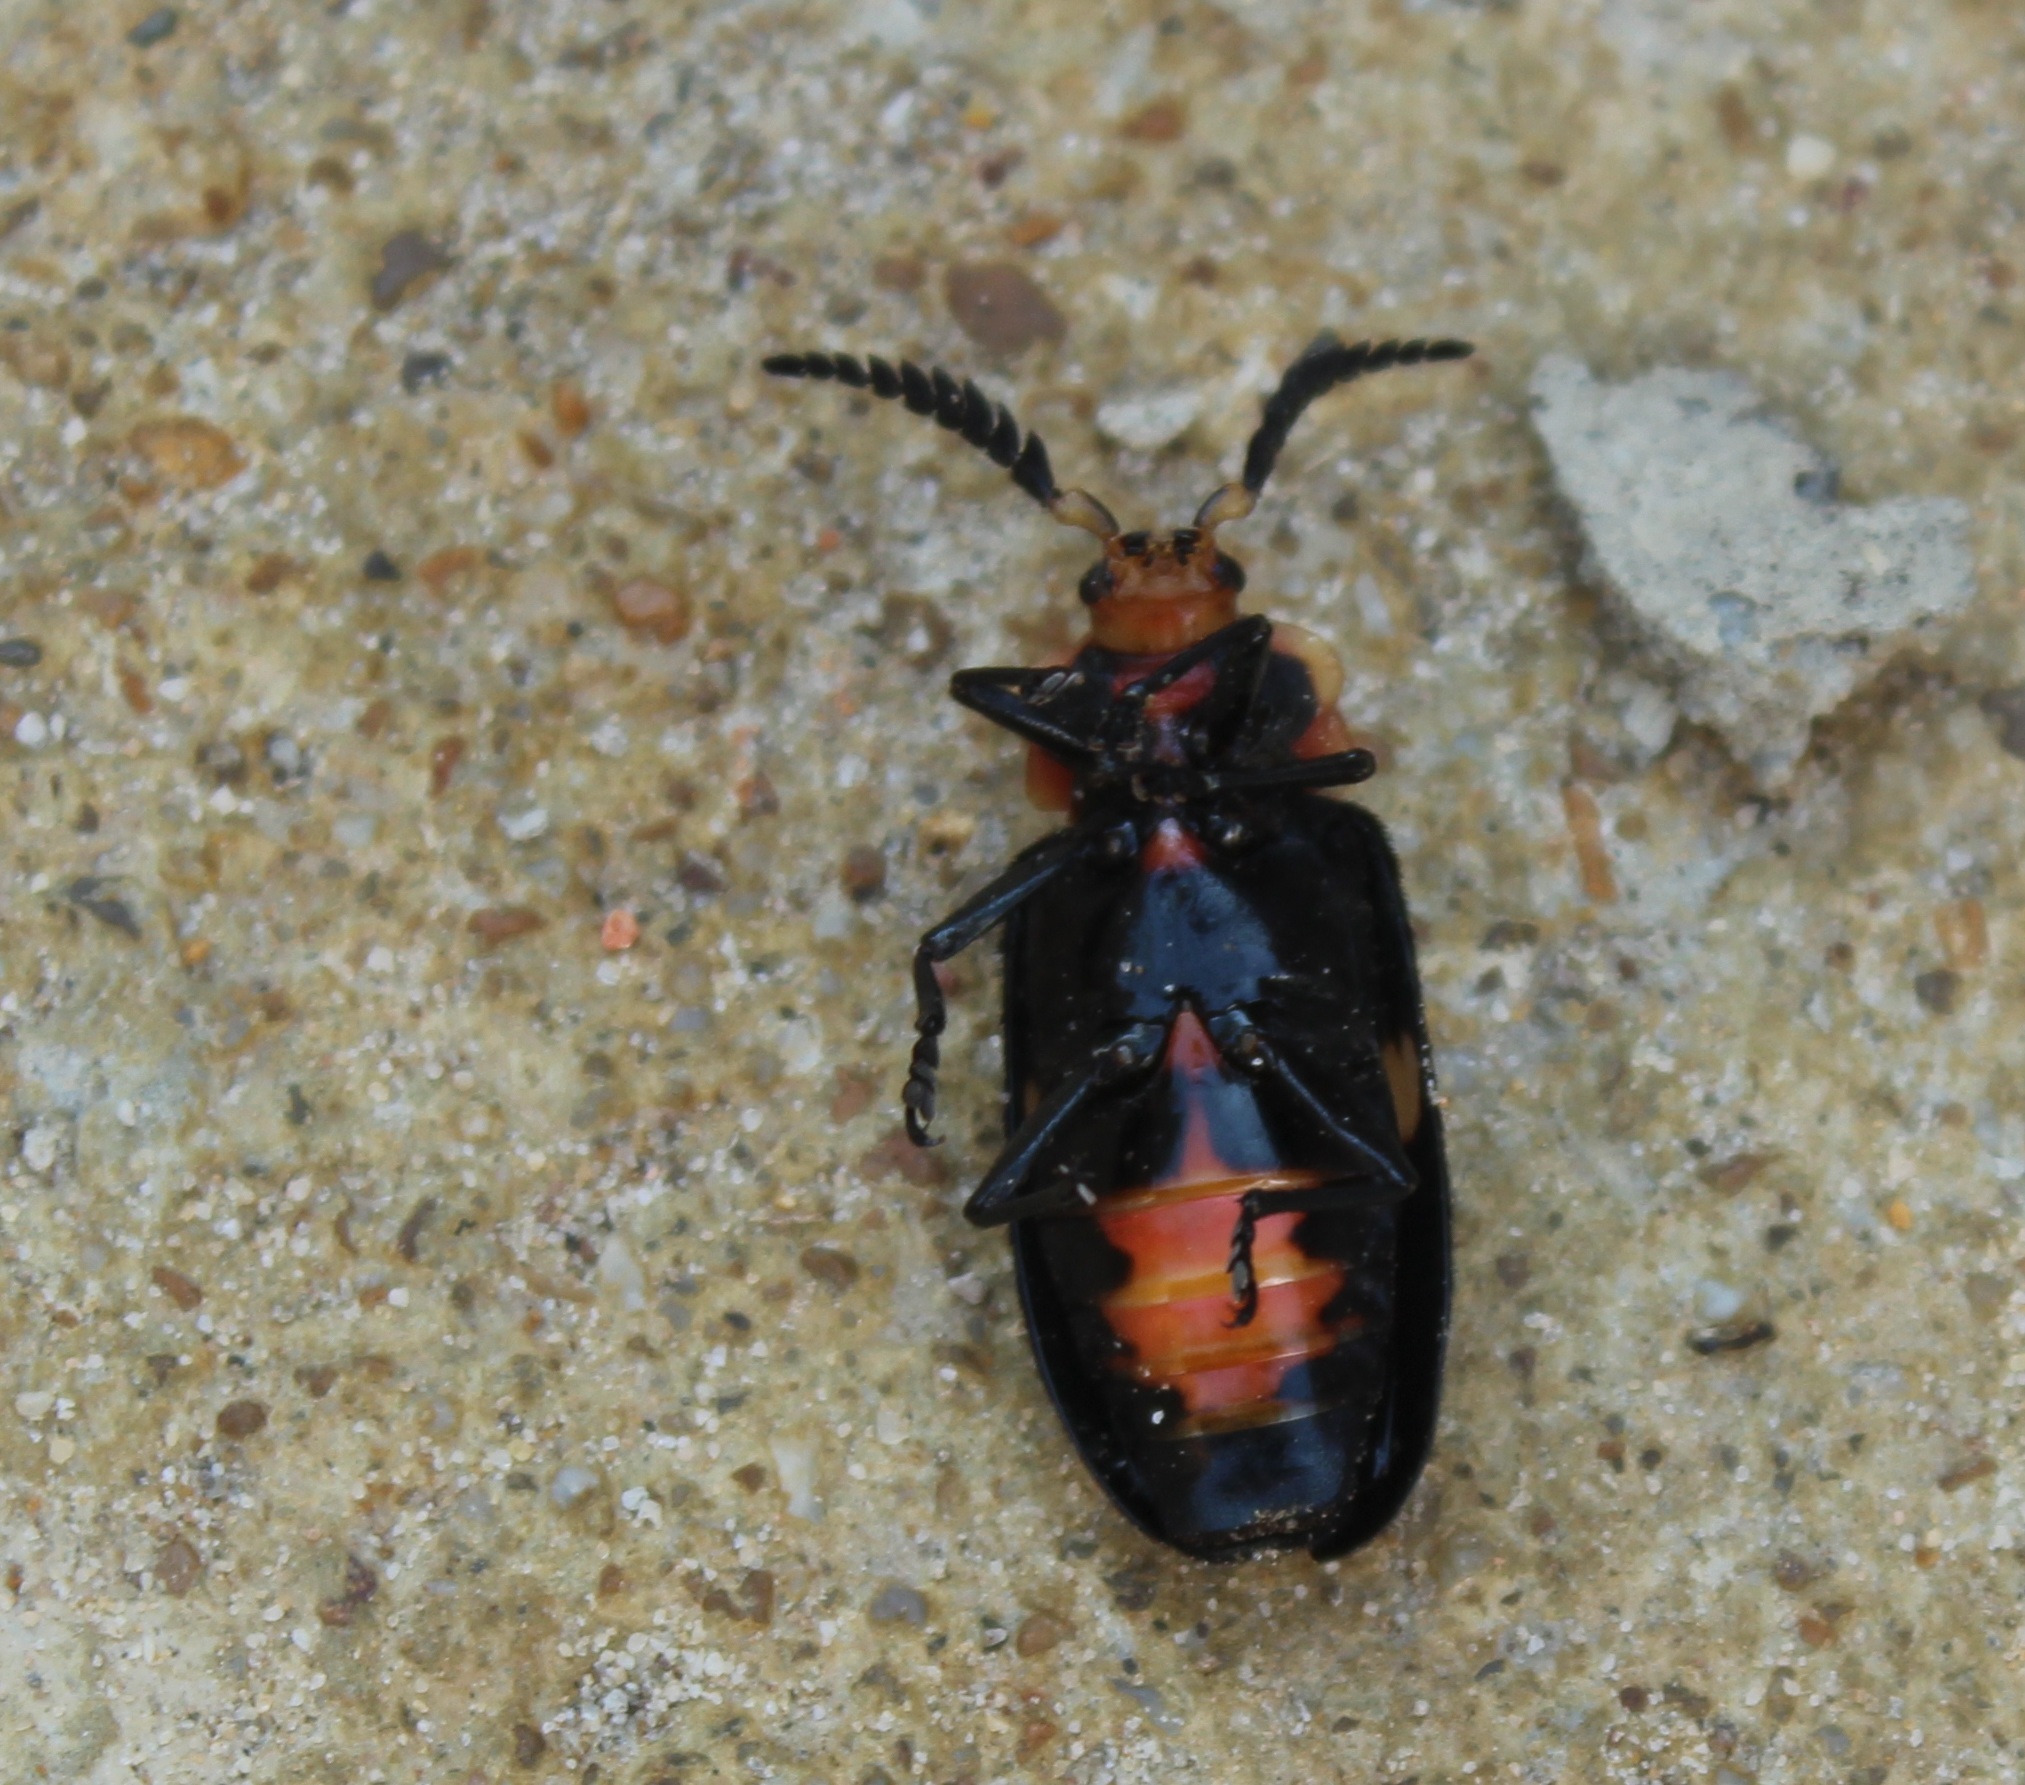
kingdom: Animalia
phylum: Arthropoda
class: Insecta
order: Coleoptera
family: Cerambycidae
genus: Allocerus
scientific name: Allocerus dilaticornis
